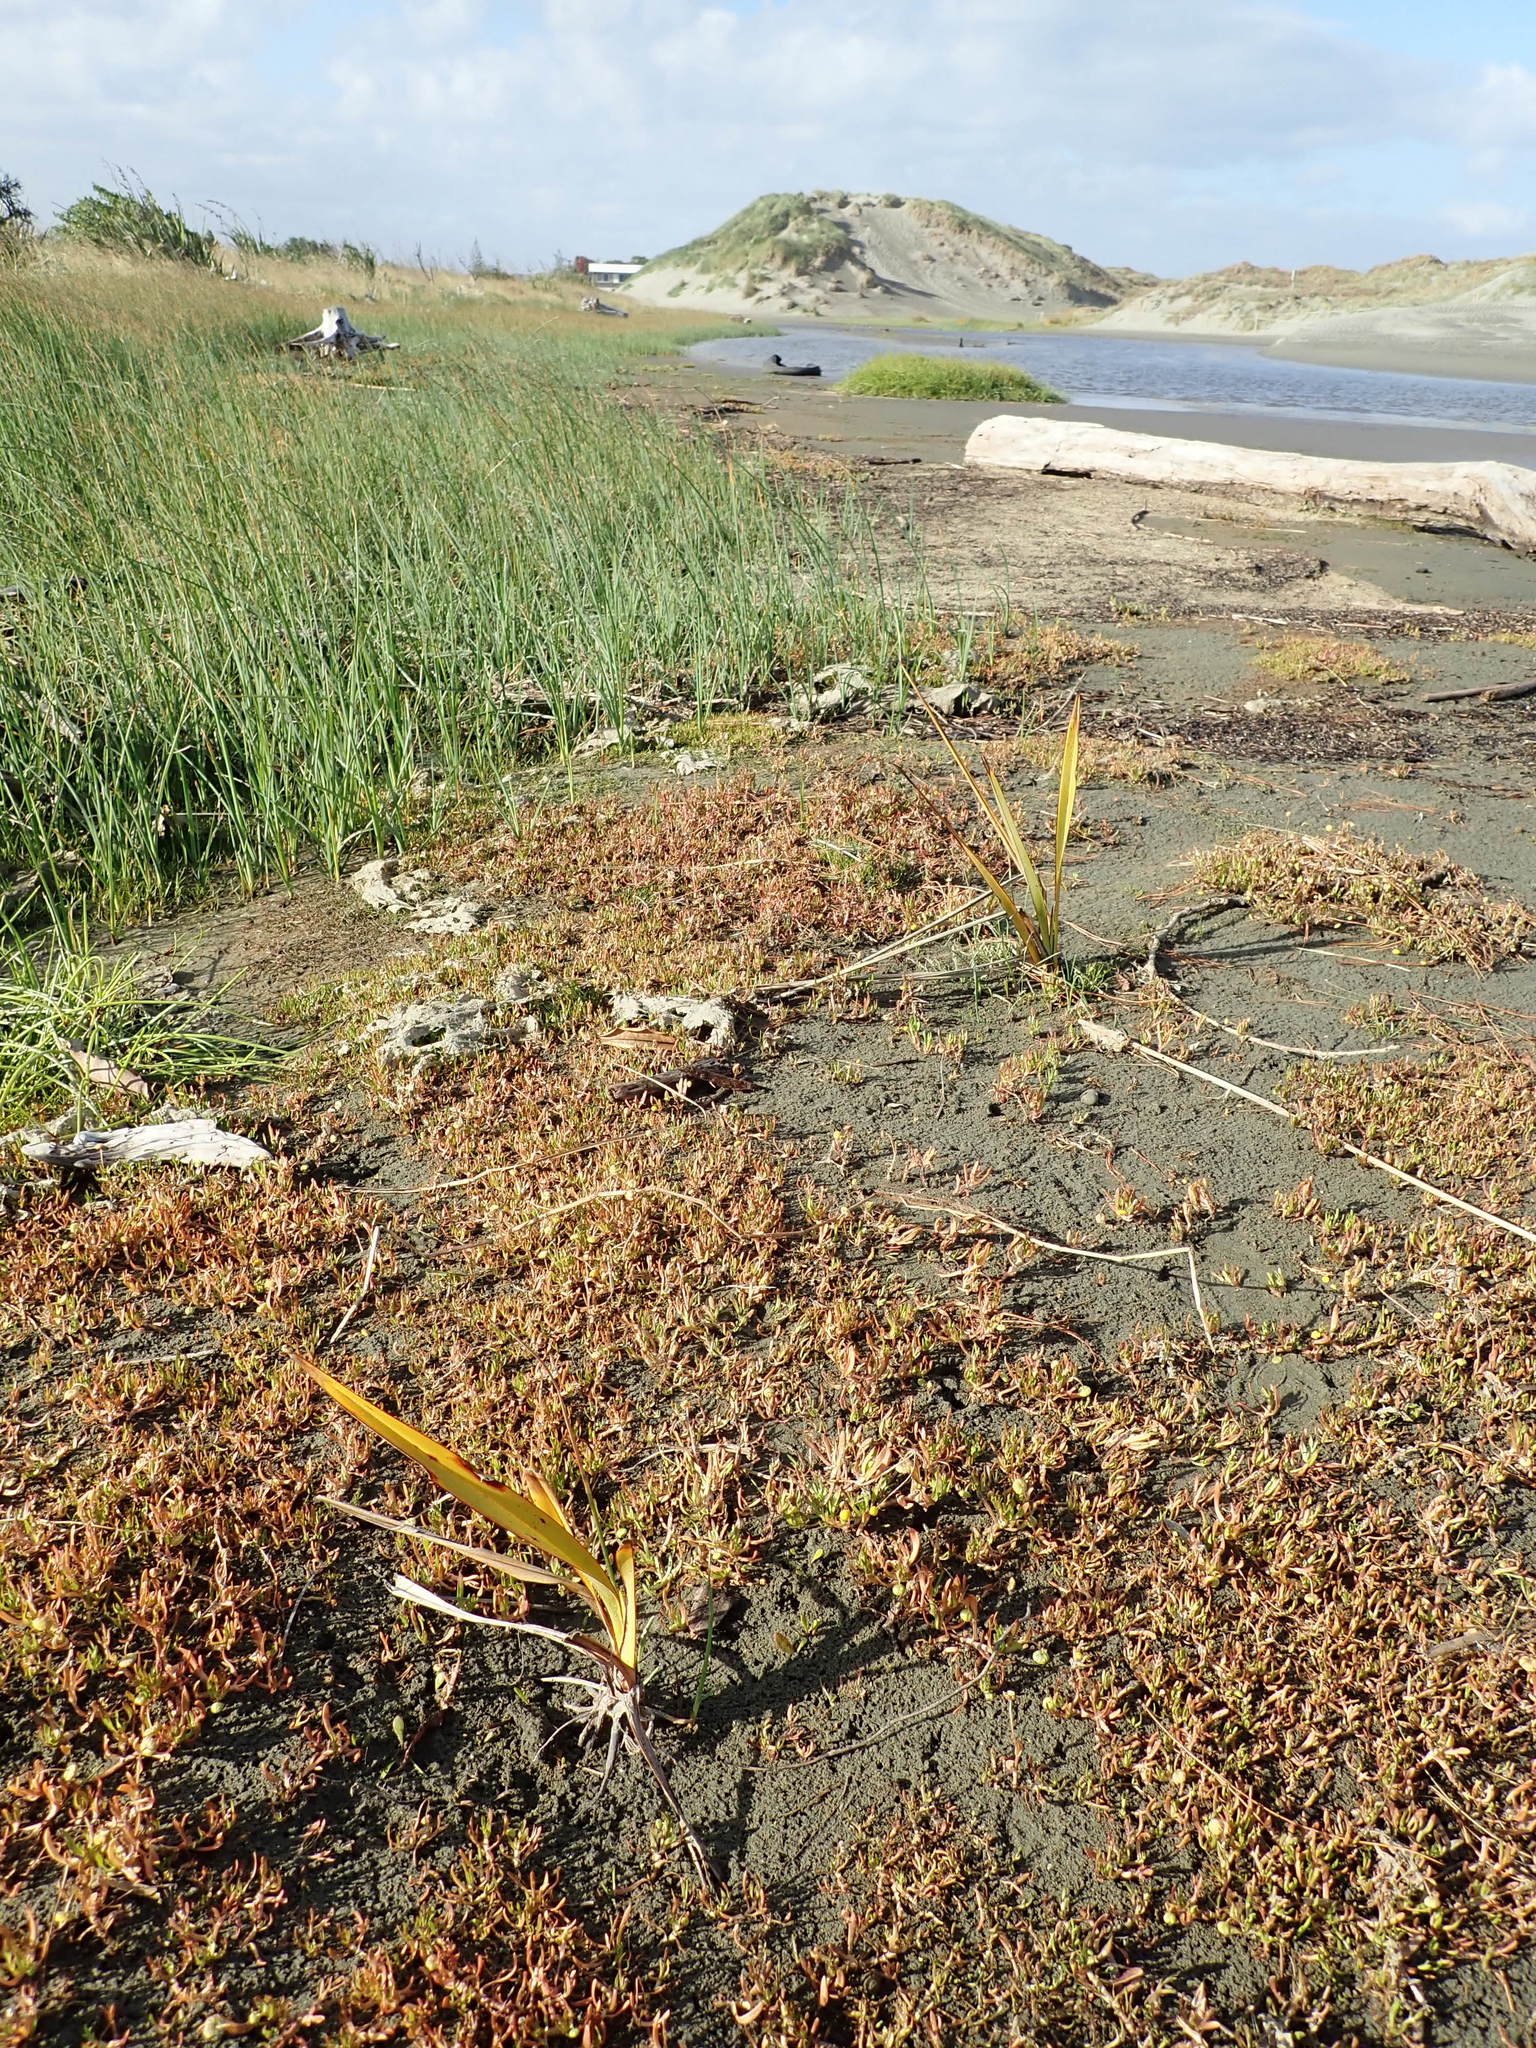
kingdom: Plantae
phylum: Tracheophyta
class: Magnoliopsida
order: Lamiales
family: Scrophulariaceae
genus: Limosella
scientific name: Limosella australis
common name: Welsh mudwort
